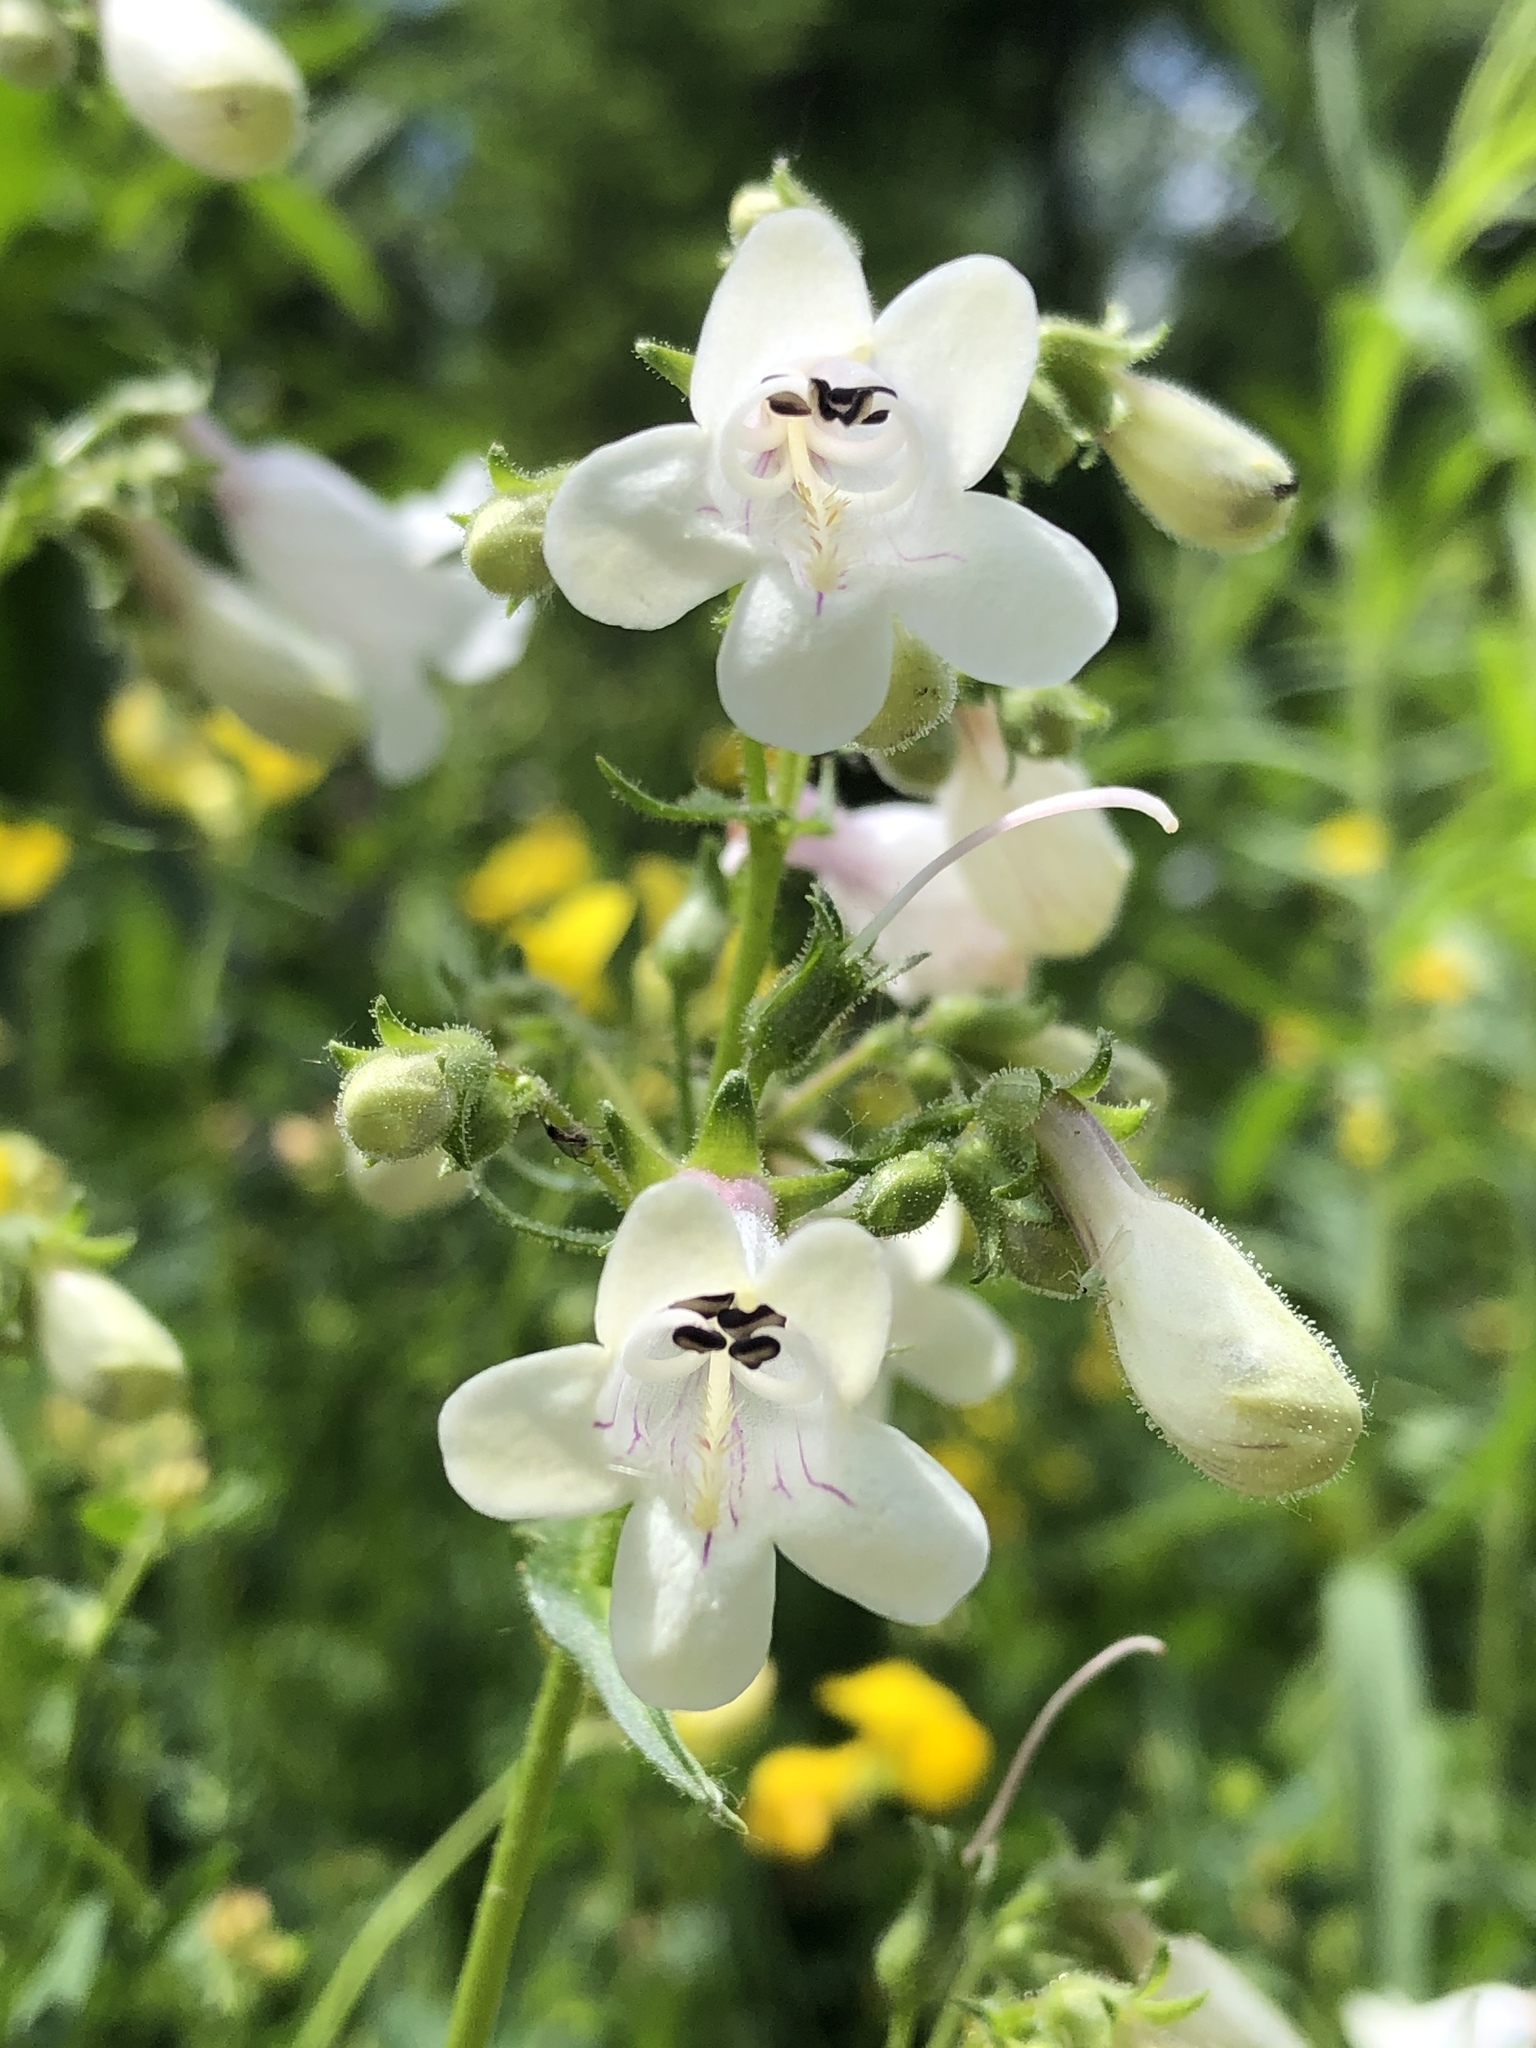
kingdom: Plantae
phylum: Tracheophyta
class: Magnoliopsida
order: Lamiales
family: Plantaginaceae
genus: Penstemon
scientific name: Penstemon digitalis
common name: Foxglove beardtongue
